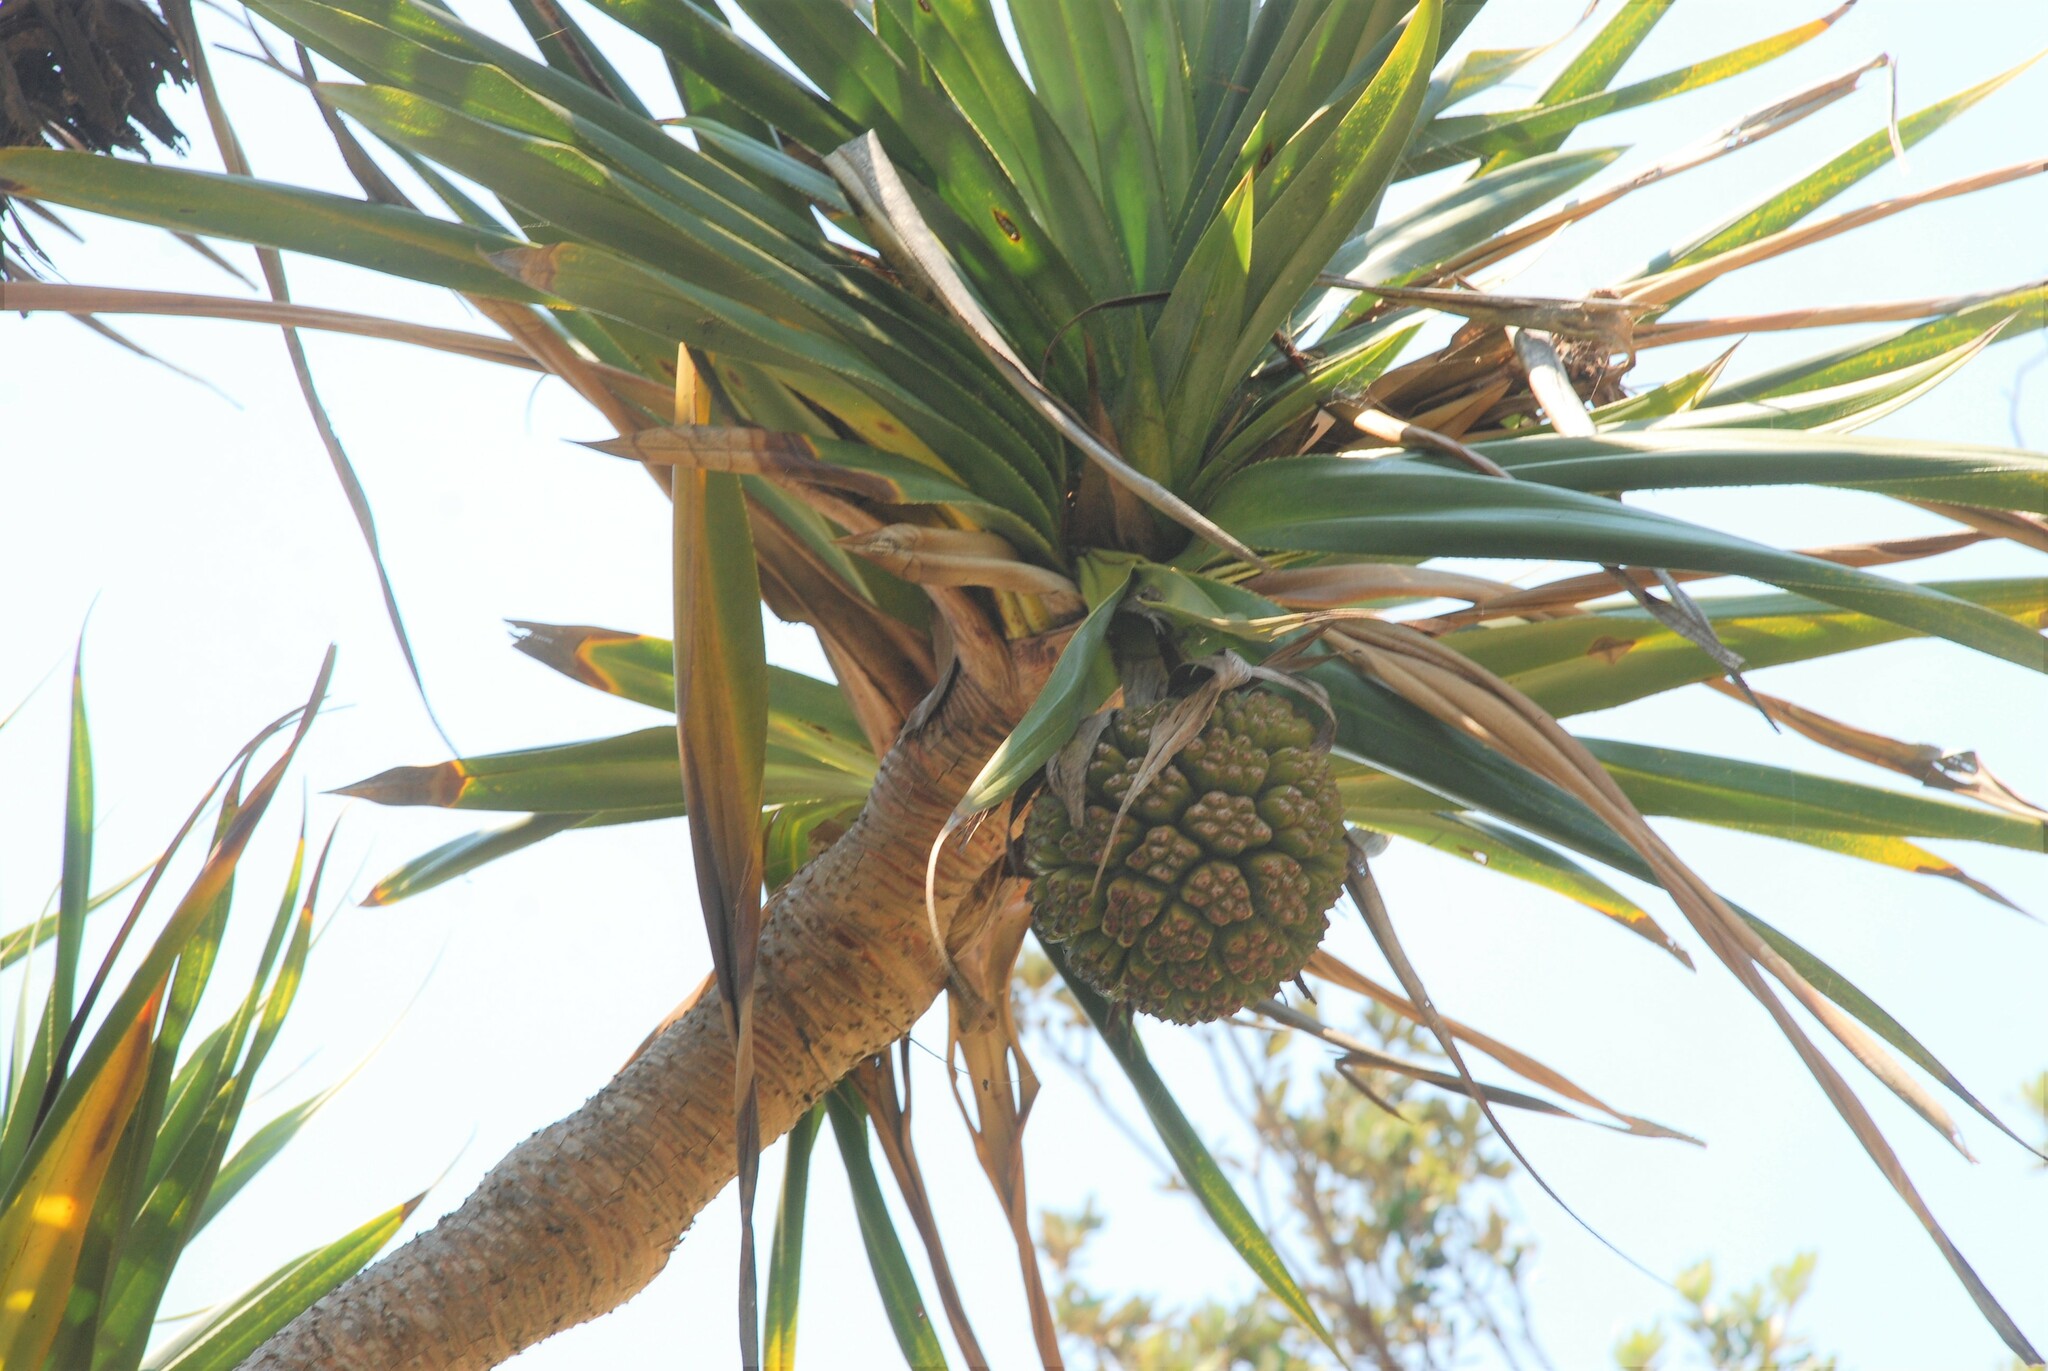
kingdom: Plantae
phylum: Tracheophyta
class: Liliopsida
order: Pandanales
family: Pandanaceae
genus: Pandanus
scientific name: Pandanus tectorius
